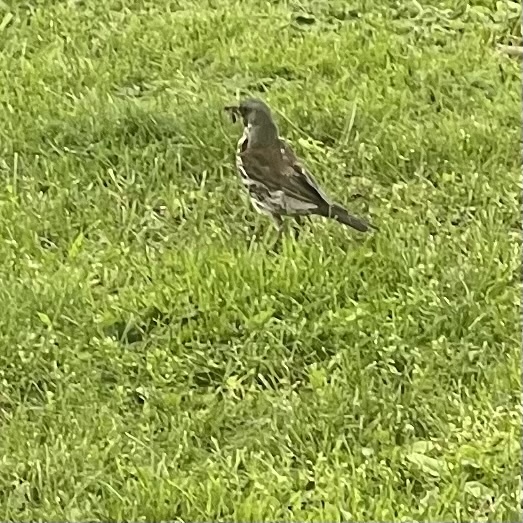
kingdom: Animalia
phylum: Chordata
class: Aves
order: Passeriformes
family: Turdidae
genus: Turdus
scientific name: Turdus pilaris
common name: Fieldfare
